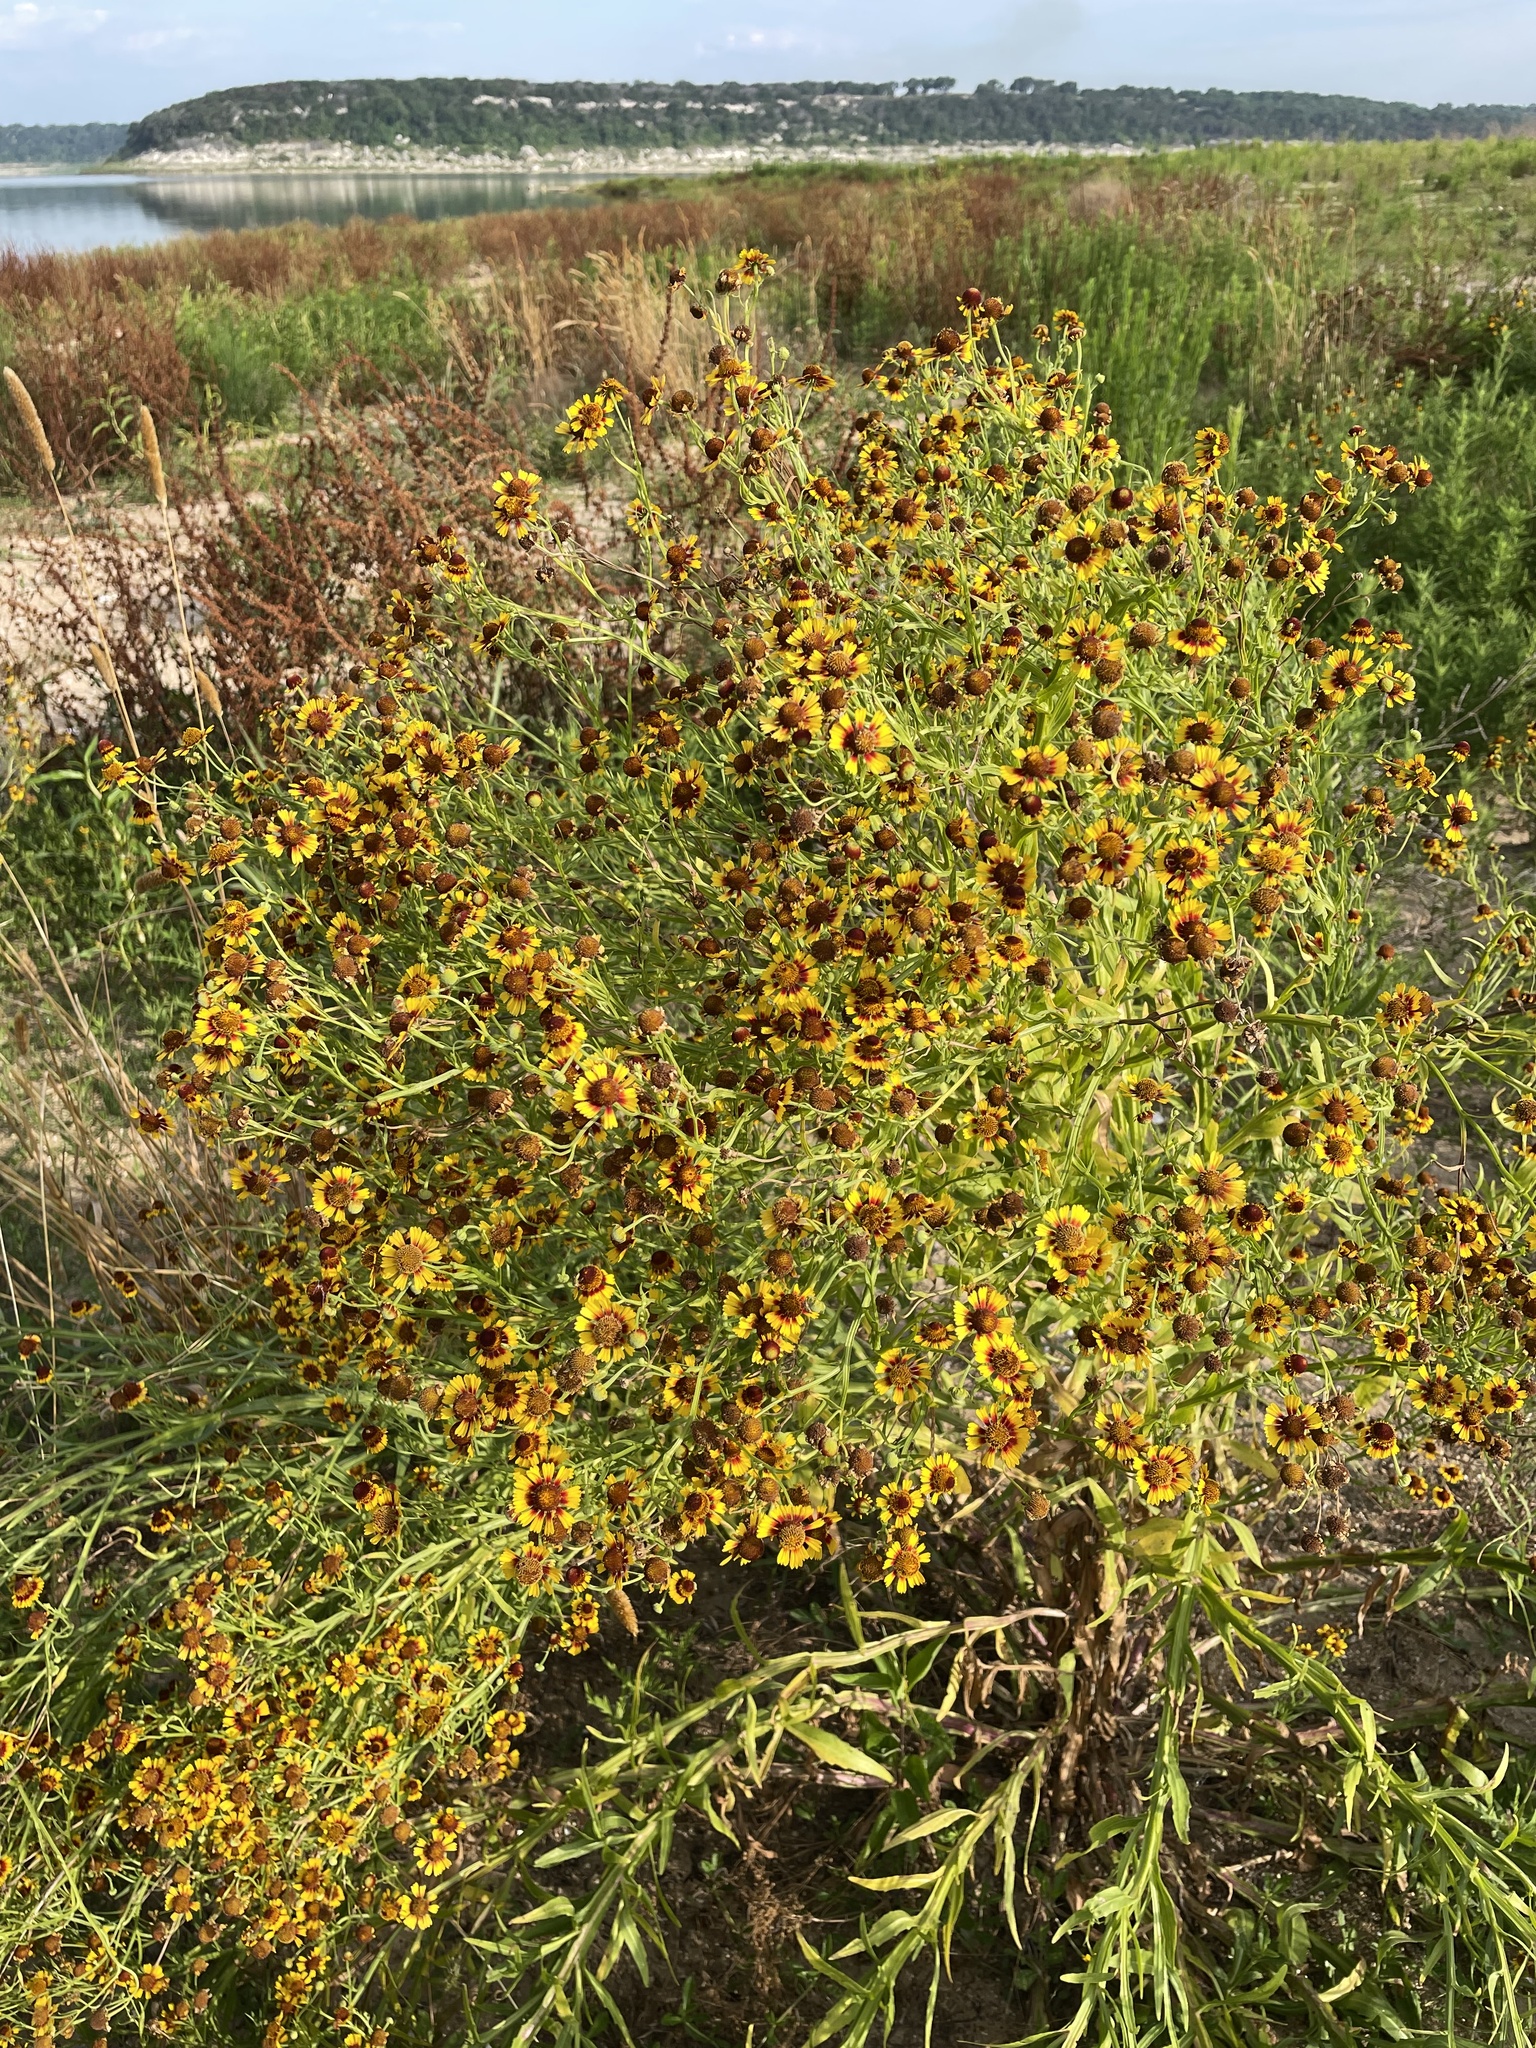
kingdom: Plantae
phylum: Tracheophyta
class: Magnoliopsida
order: Asterales
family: Asteraceae
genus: Helenium
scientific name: Helenium elegans
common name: Pretty sneezeweed
